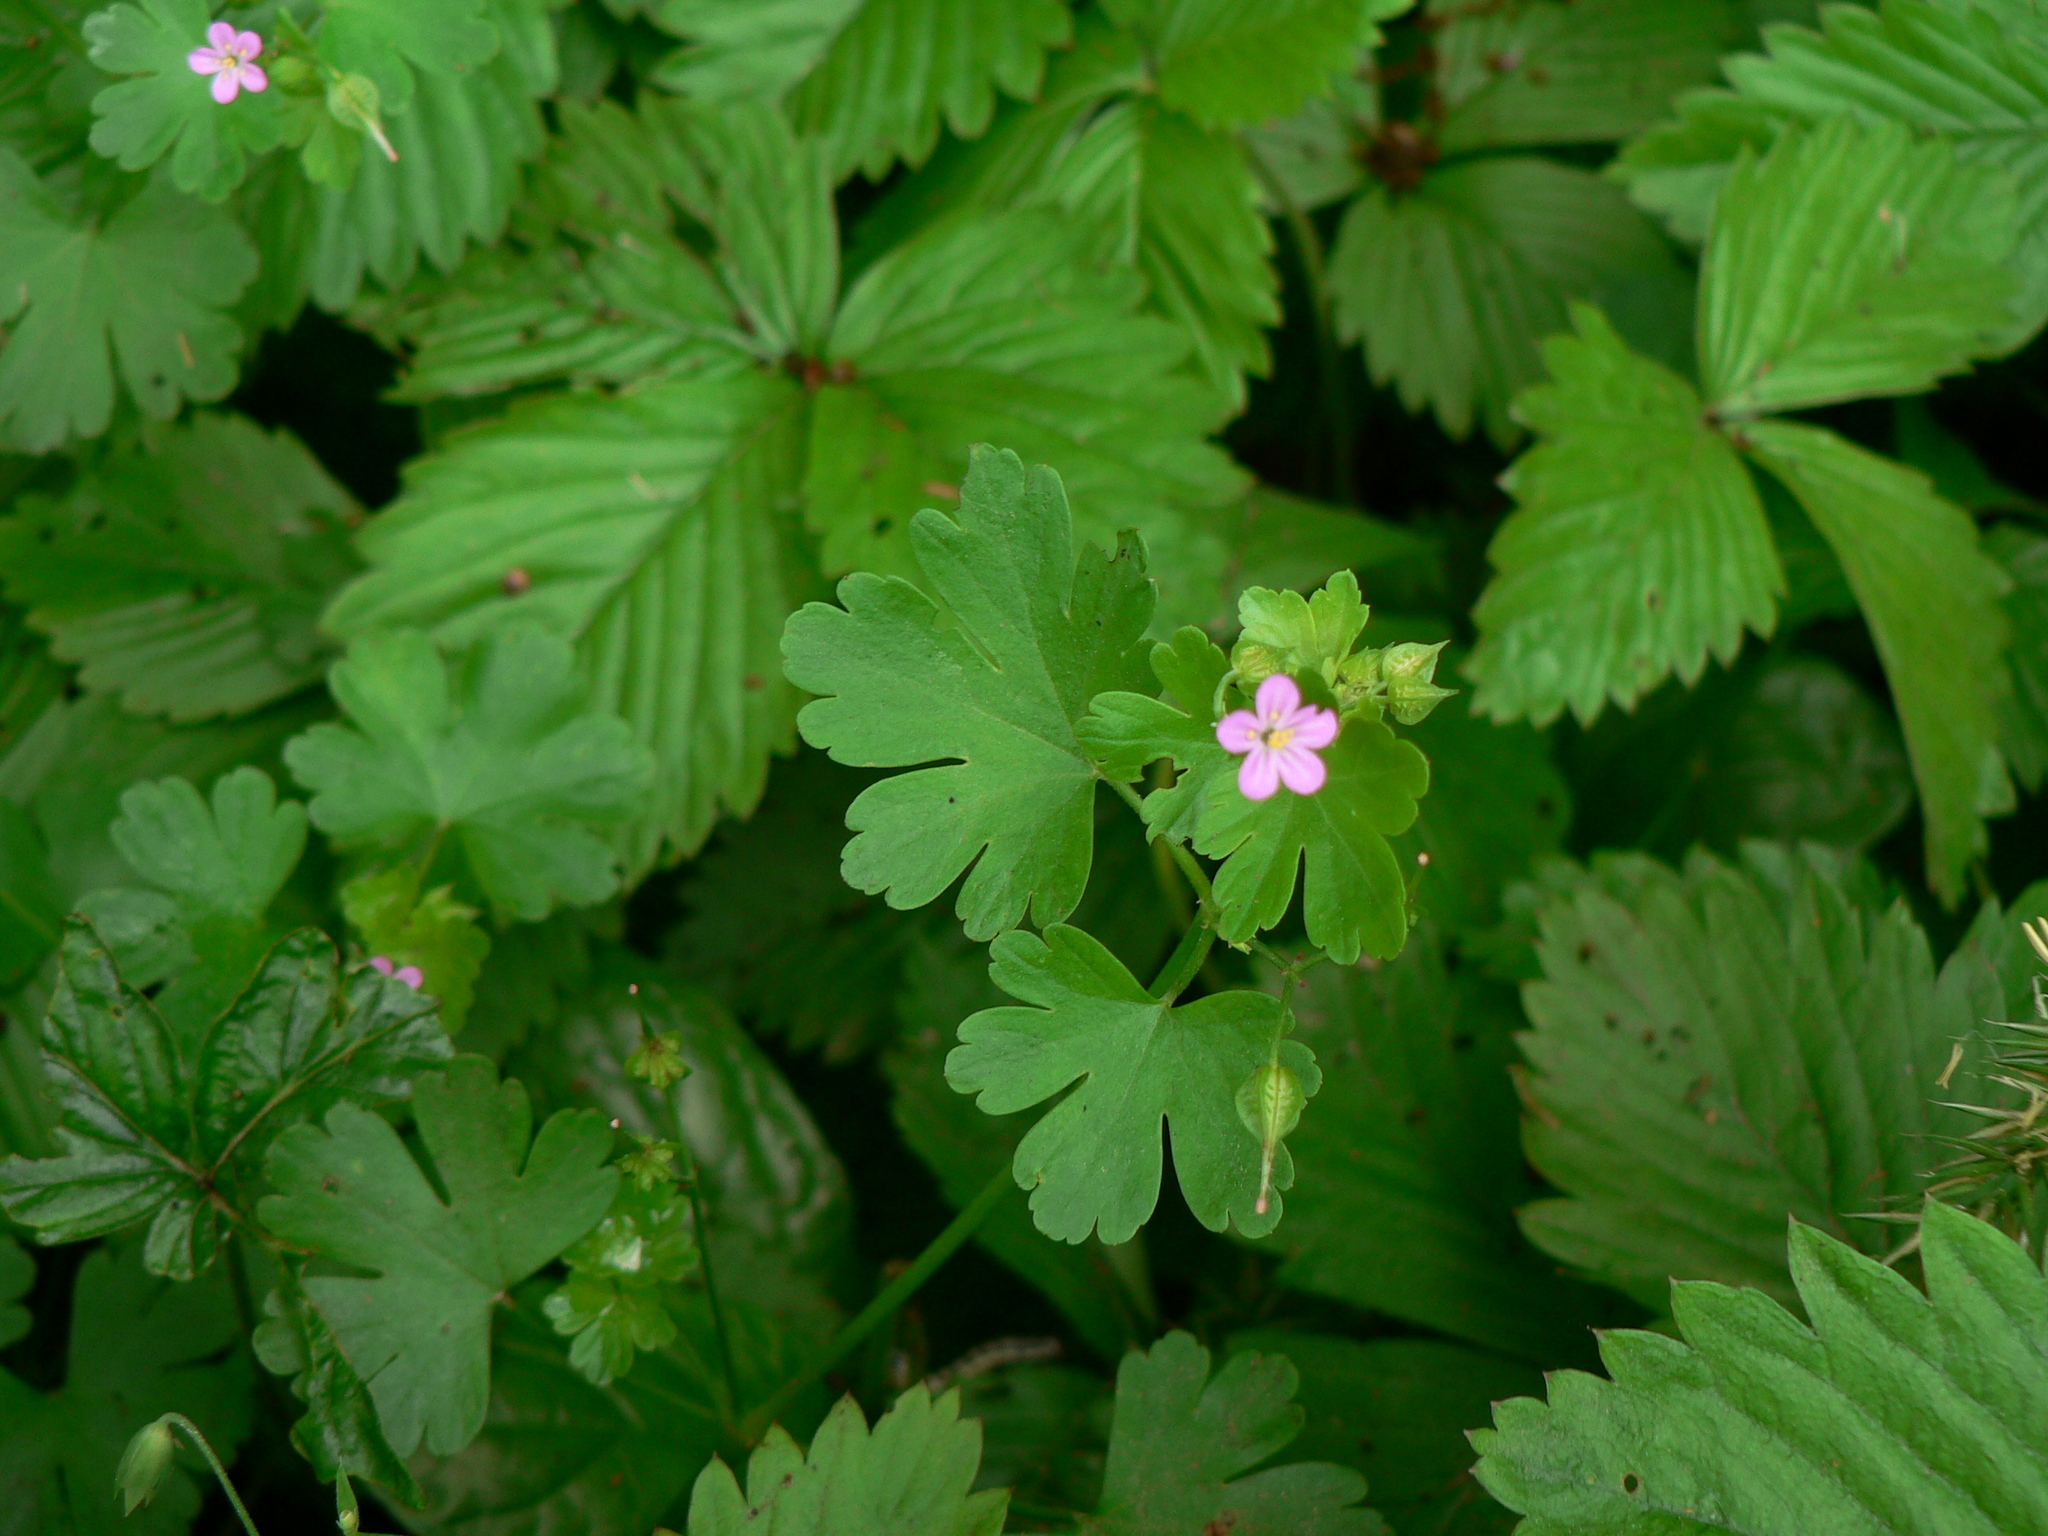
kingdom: Plantae
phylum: Tracheophyta
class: Magnoliopsida
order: Geraniales
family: Geraniaceae
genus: Geranium
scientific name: Geranium lucidum
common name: Shining crane's-bill
